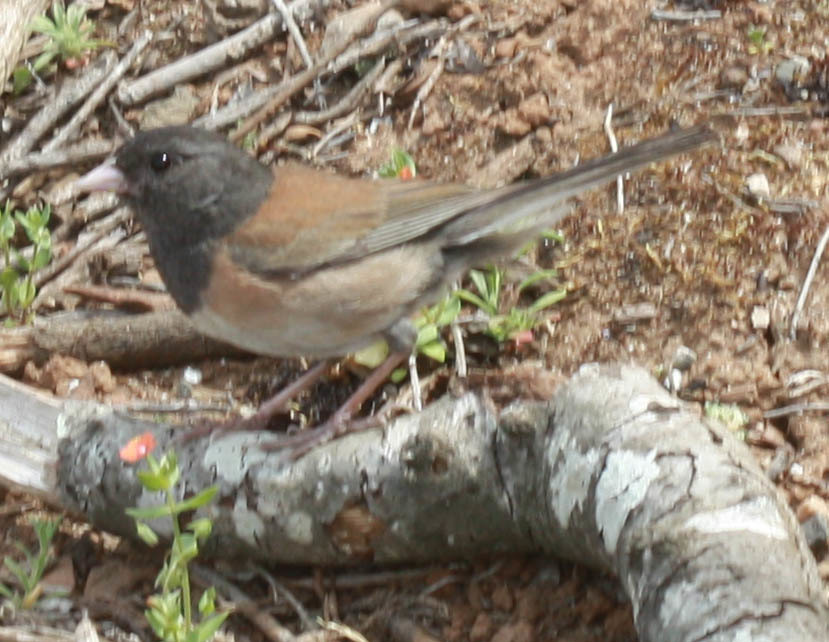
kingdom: Animalia
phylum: Chordata
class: Aves
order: Passeriformes
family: Passerellidae
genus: Junco
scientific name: Junco hyemalis
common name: Dark-eyed junco
